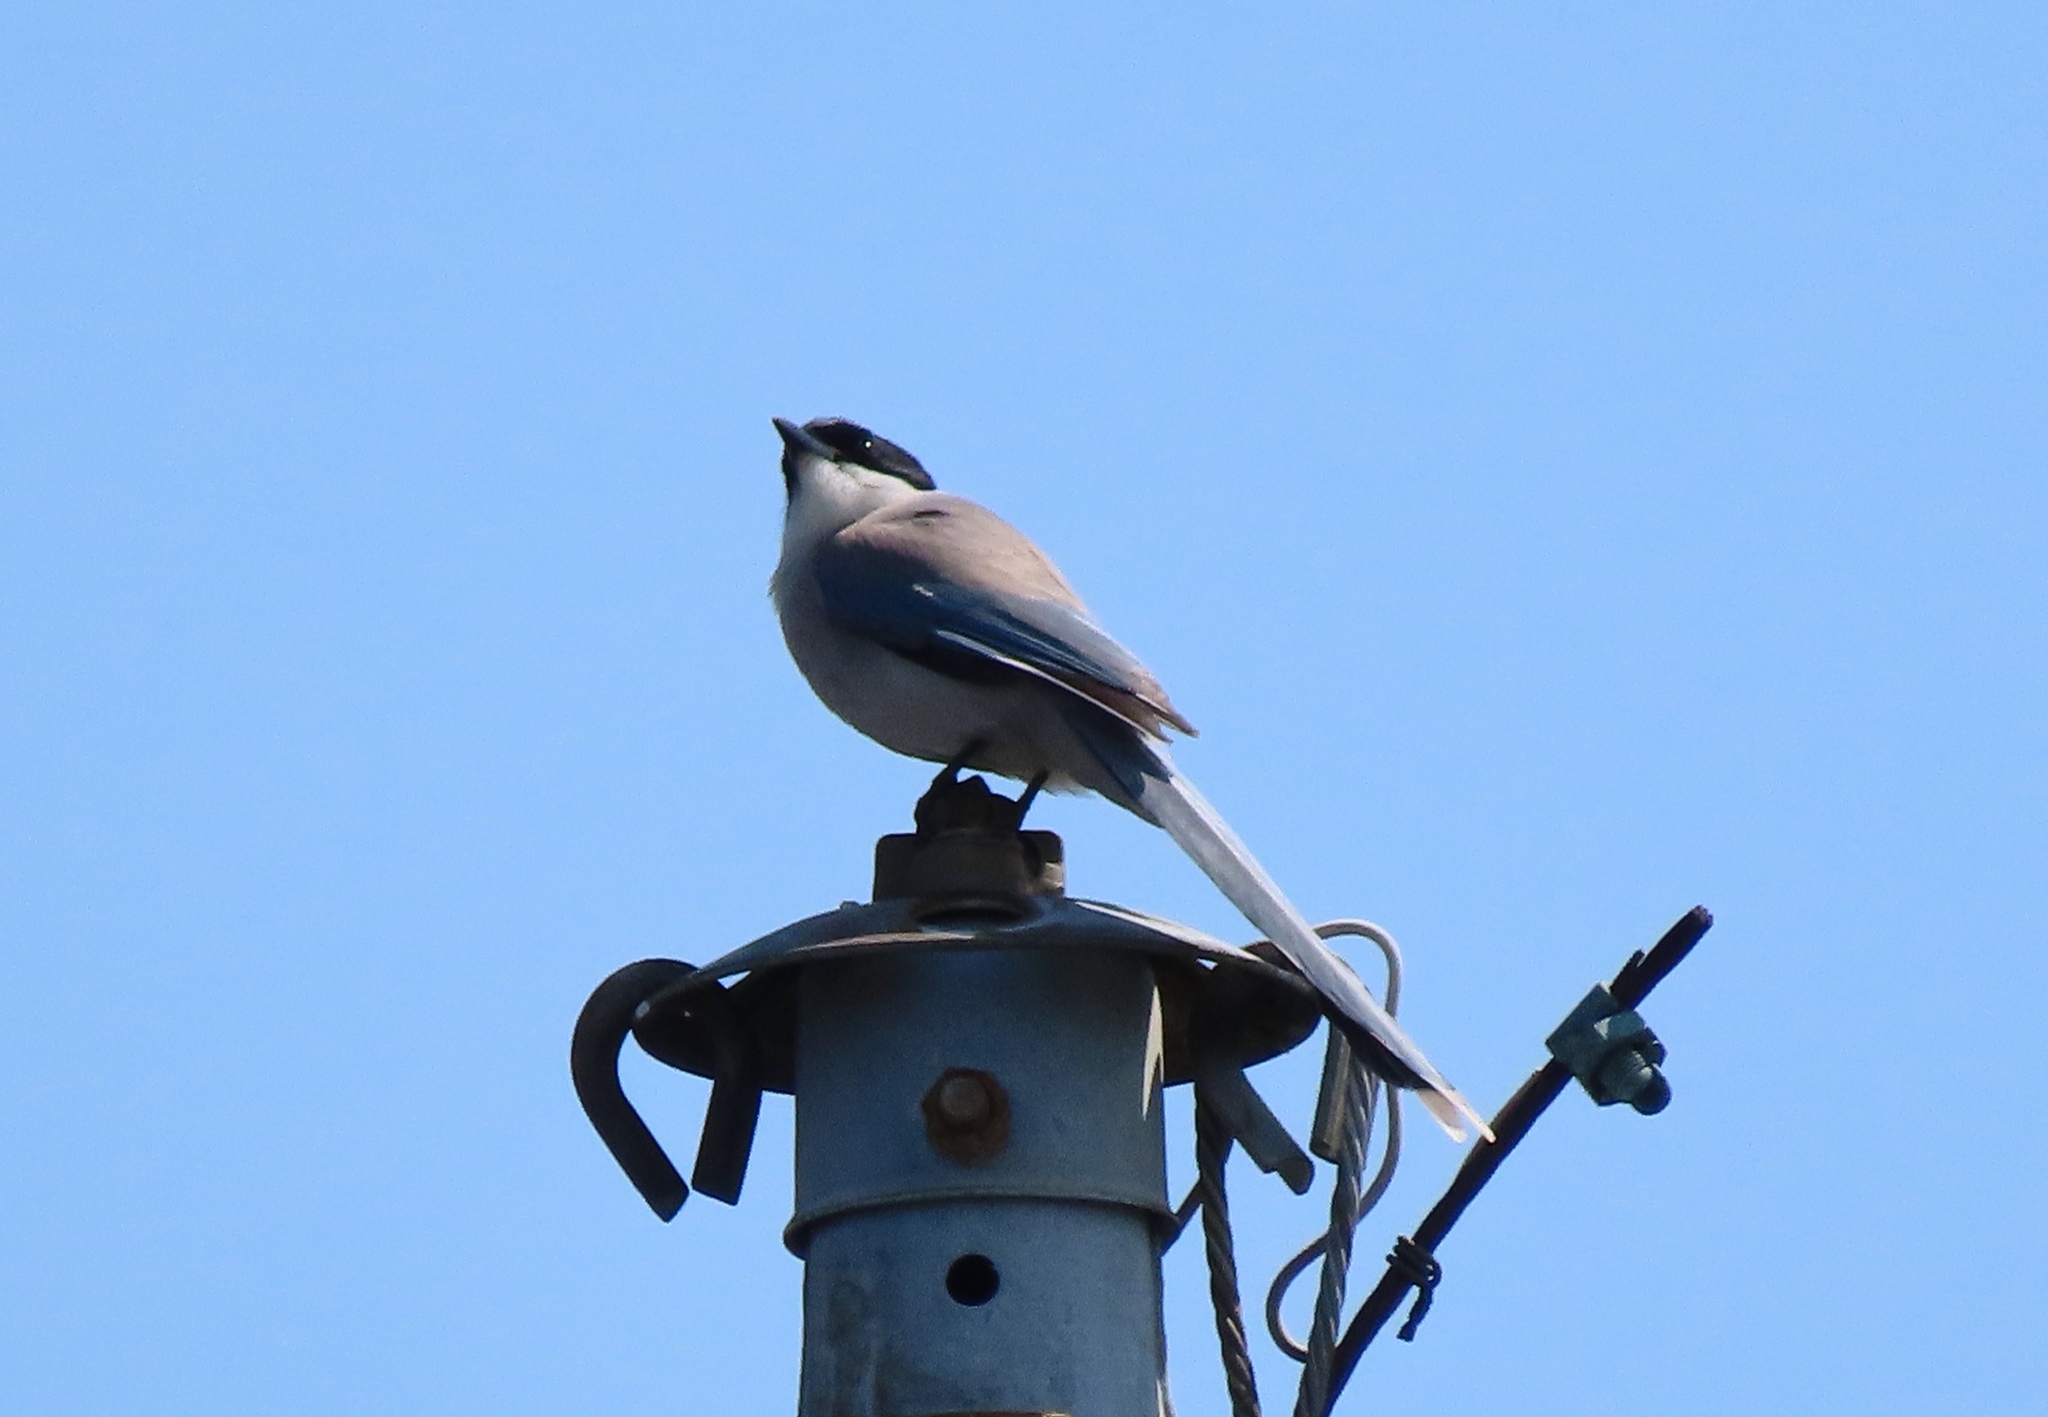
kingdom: Animalia
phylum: Chordata
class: Aves
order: Passeriformes
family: Corvidae
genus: Cyanopica
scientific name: Cyanopica cyanus
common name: Azure-winged magpie
